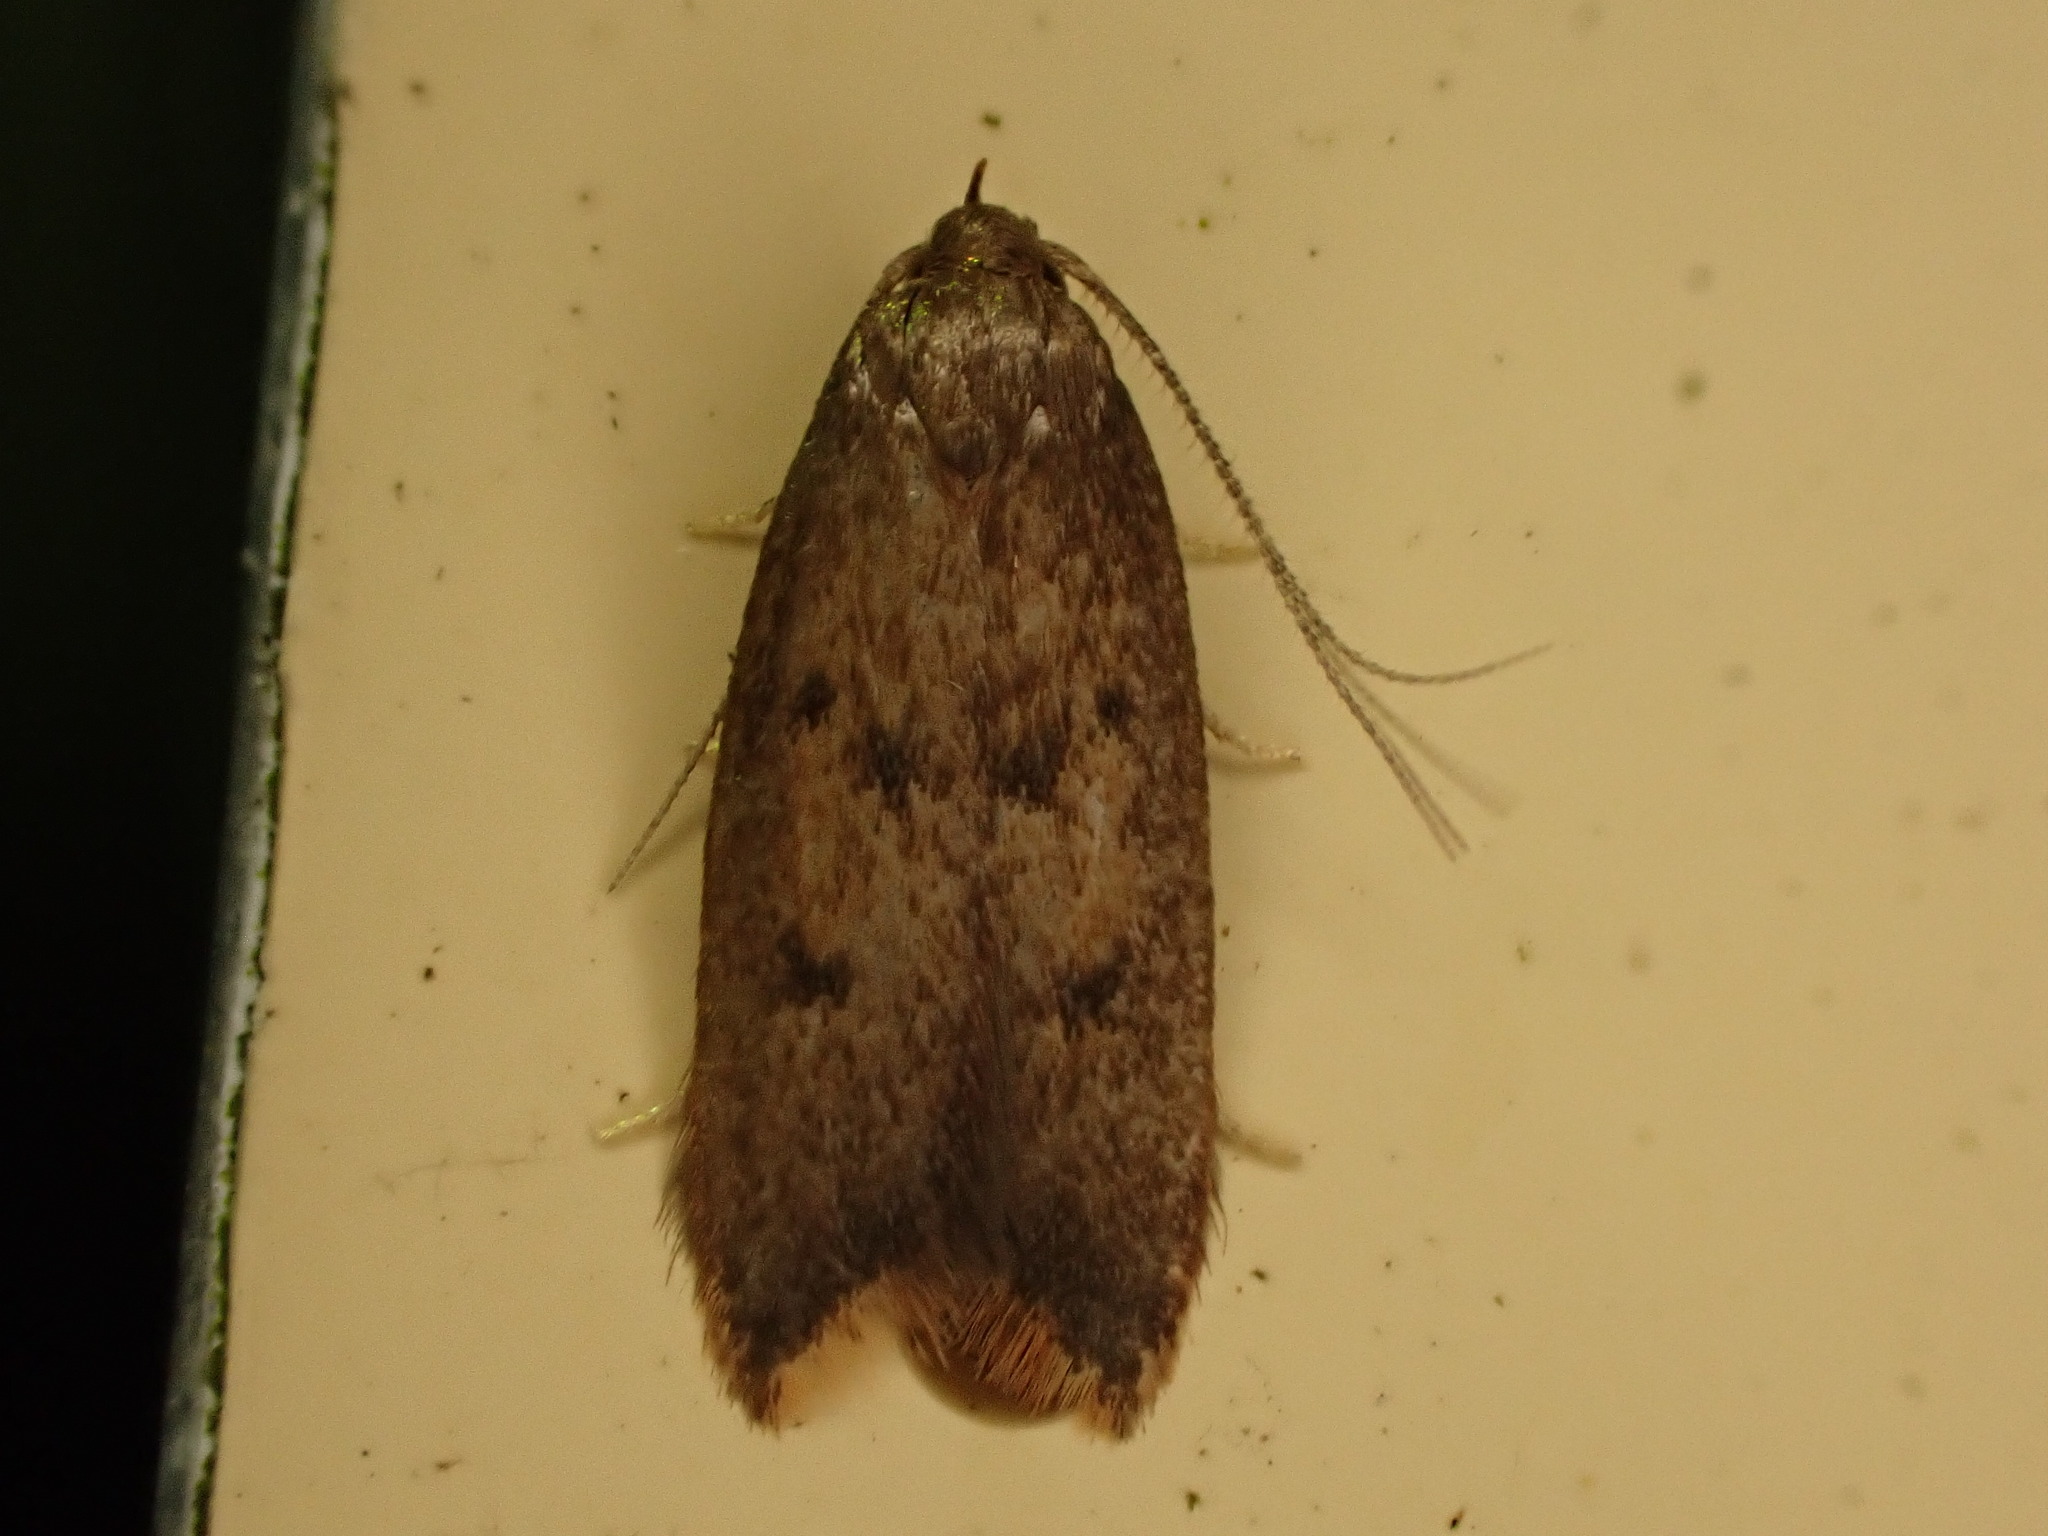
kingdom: Animalia
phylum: Arthropoda
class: Insecta
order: Lepidoptera
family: Oecophoridae
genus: Tachystola
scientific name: Tachystola acroxantha
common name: Ruddy streak
